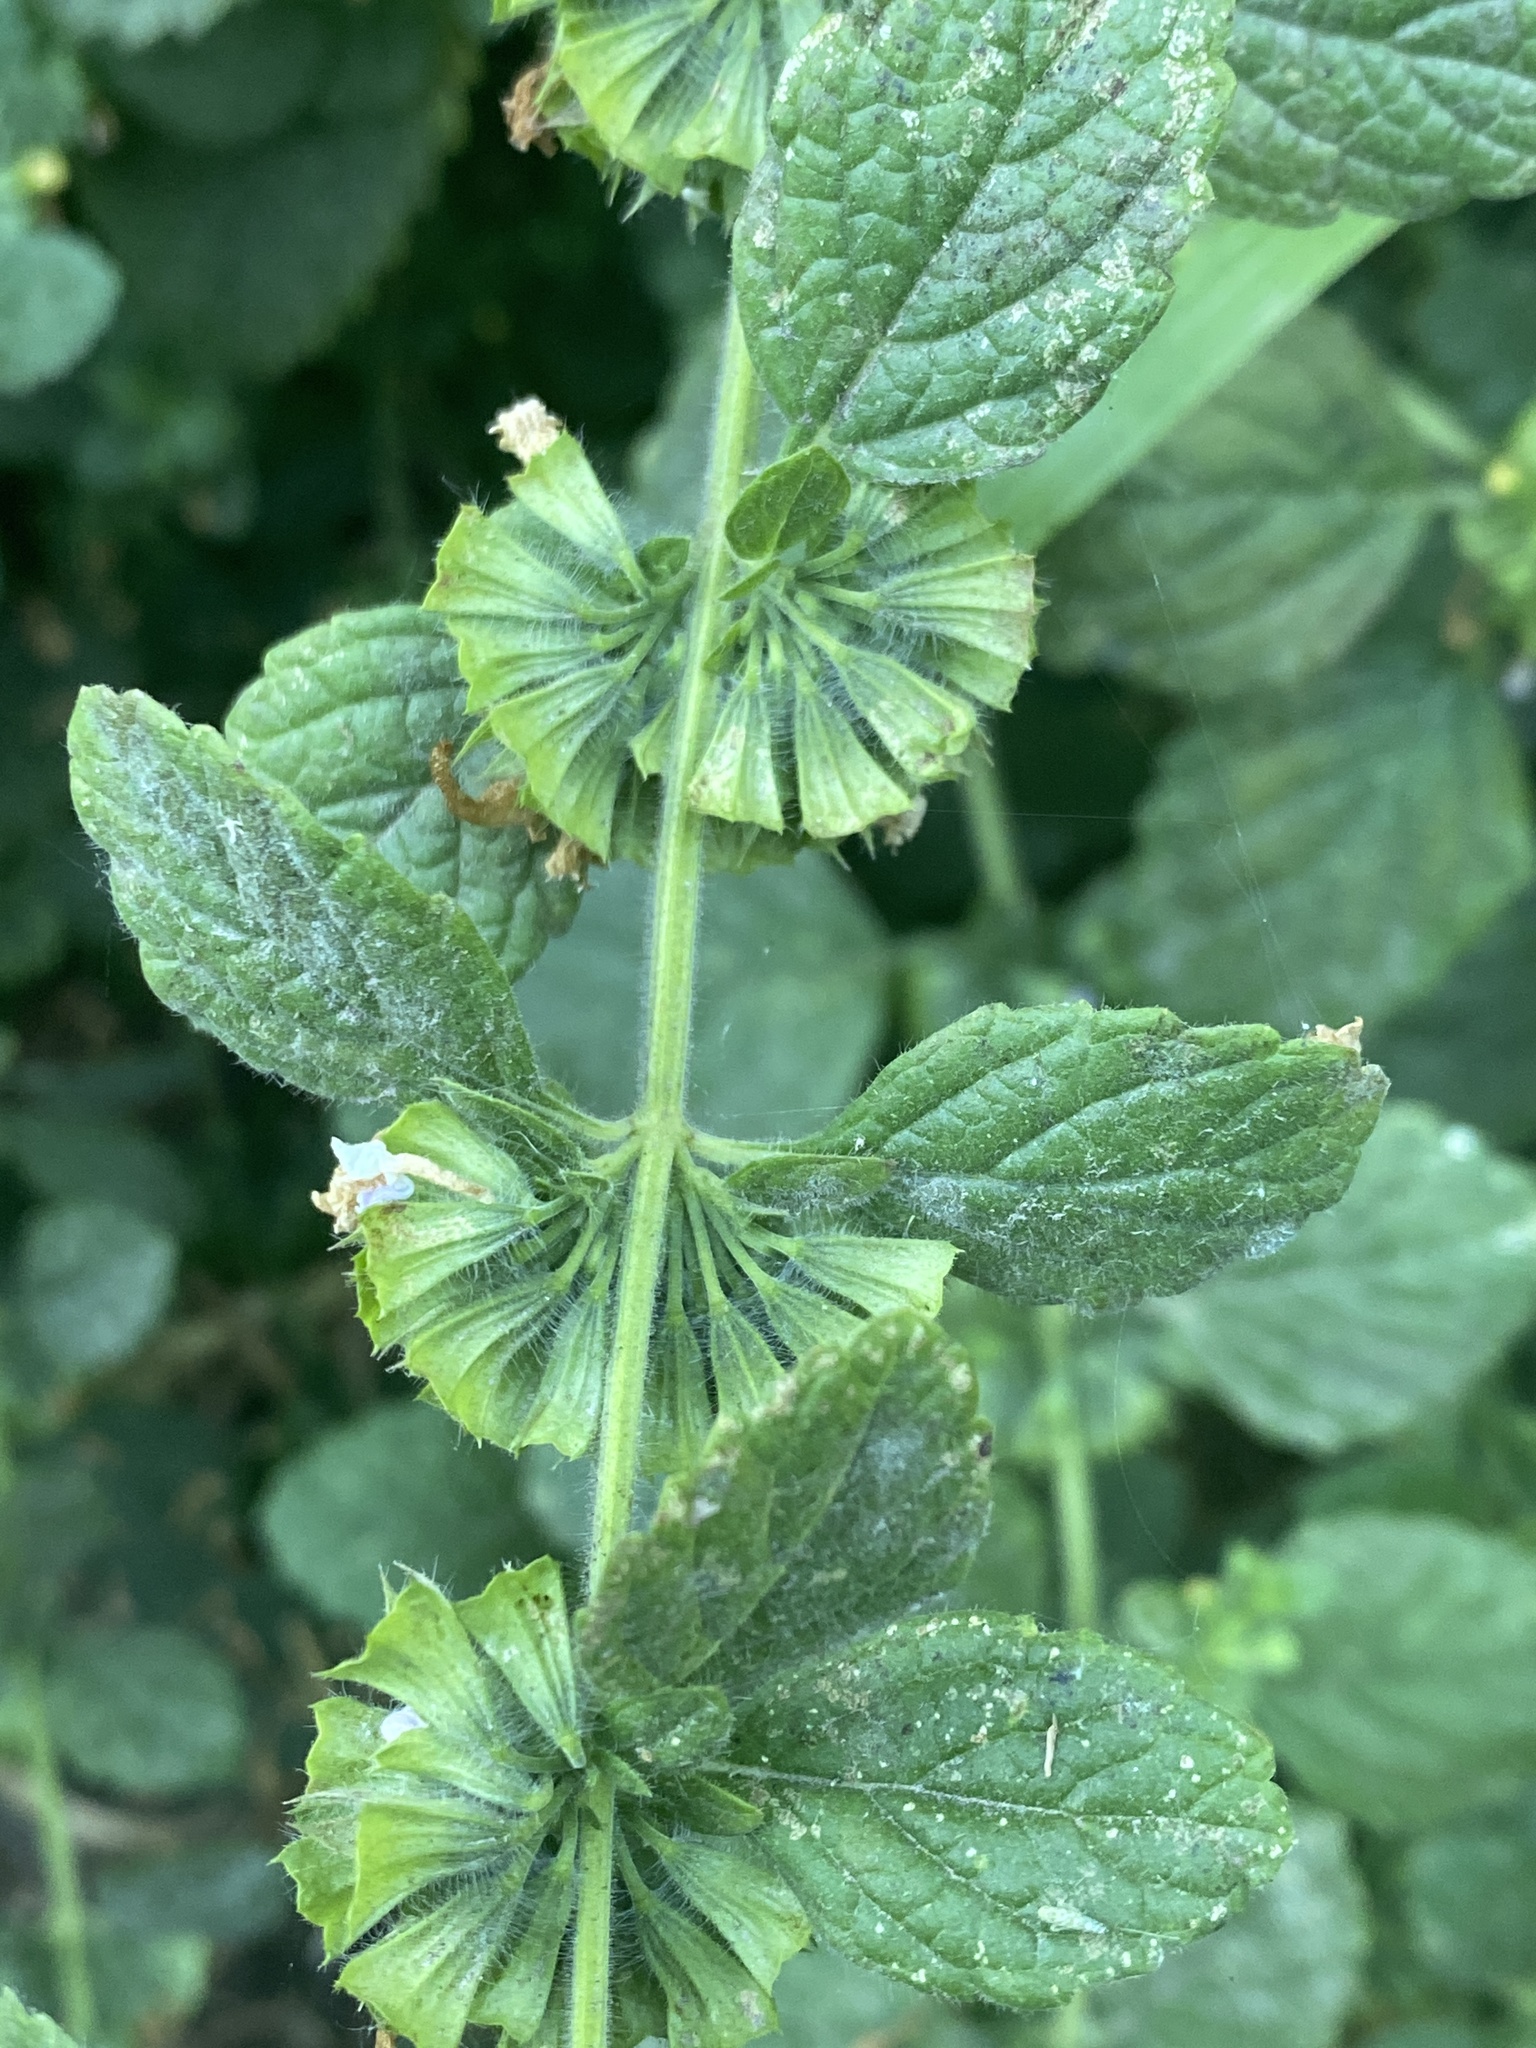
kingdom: Plantae
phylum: Tracheophyta
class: Magnoliopsida
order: Lamiales
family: Lamiaceae
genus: Melissa
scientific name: Melissa officinalis
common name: Balm
